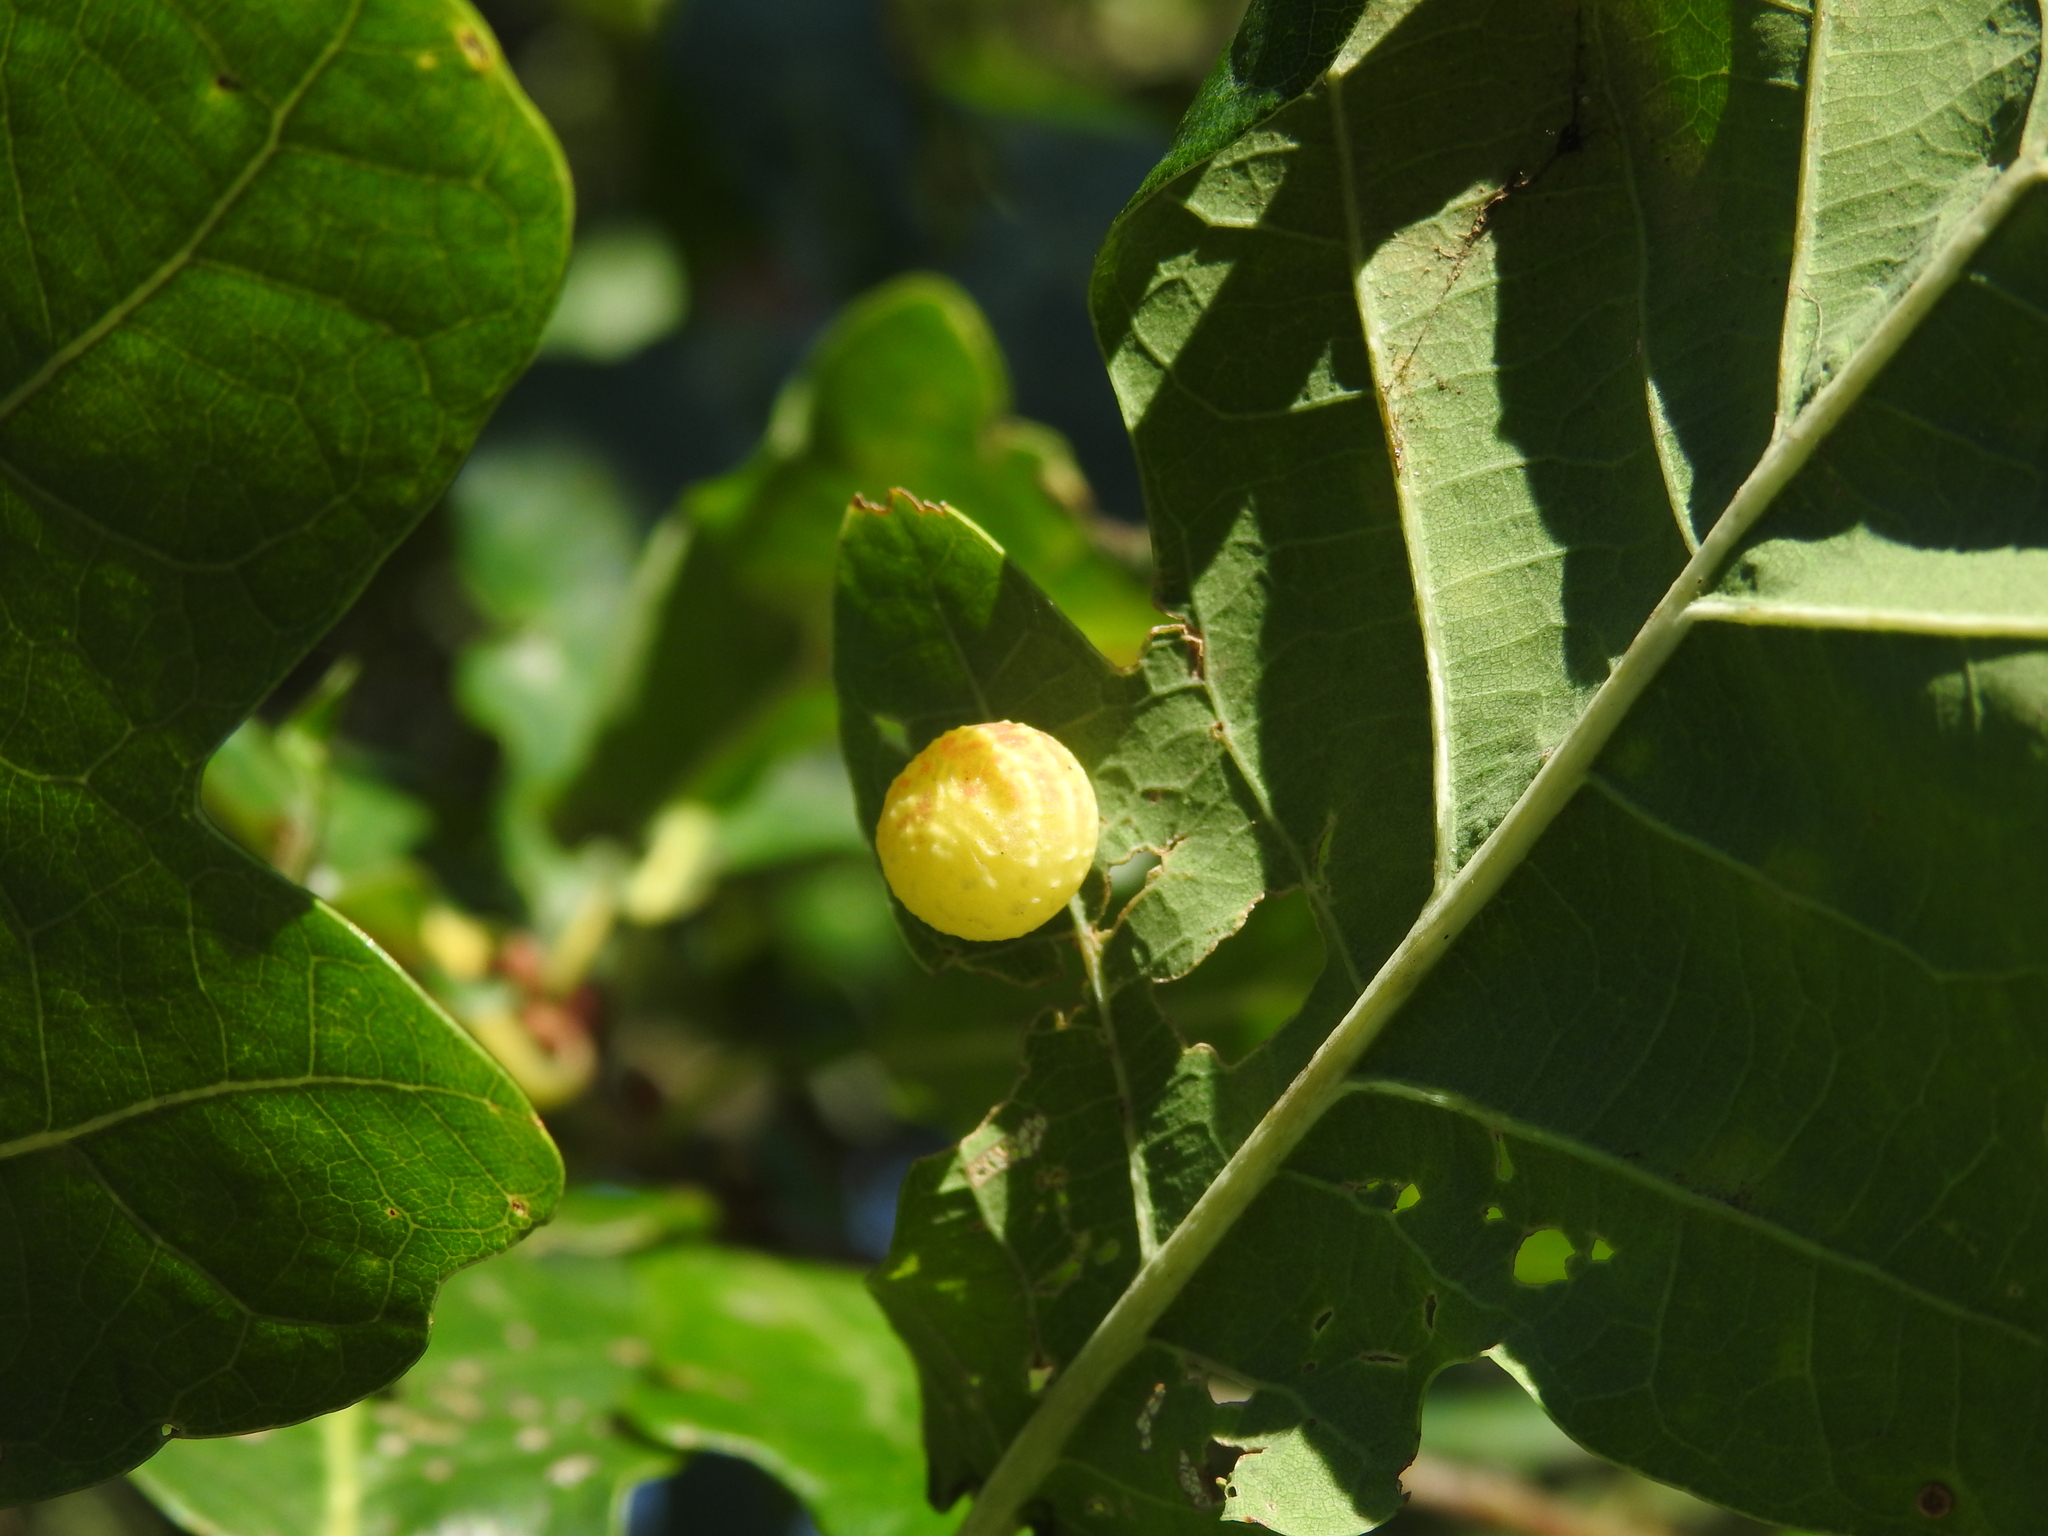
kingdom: Animalia
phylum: Arthropoda
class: Insecta
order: Hymenoptera
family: Cynipidae
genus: Cynips
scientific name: Cynips longiventris
